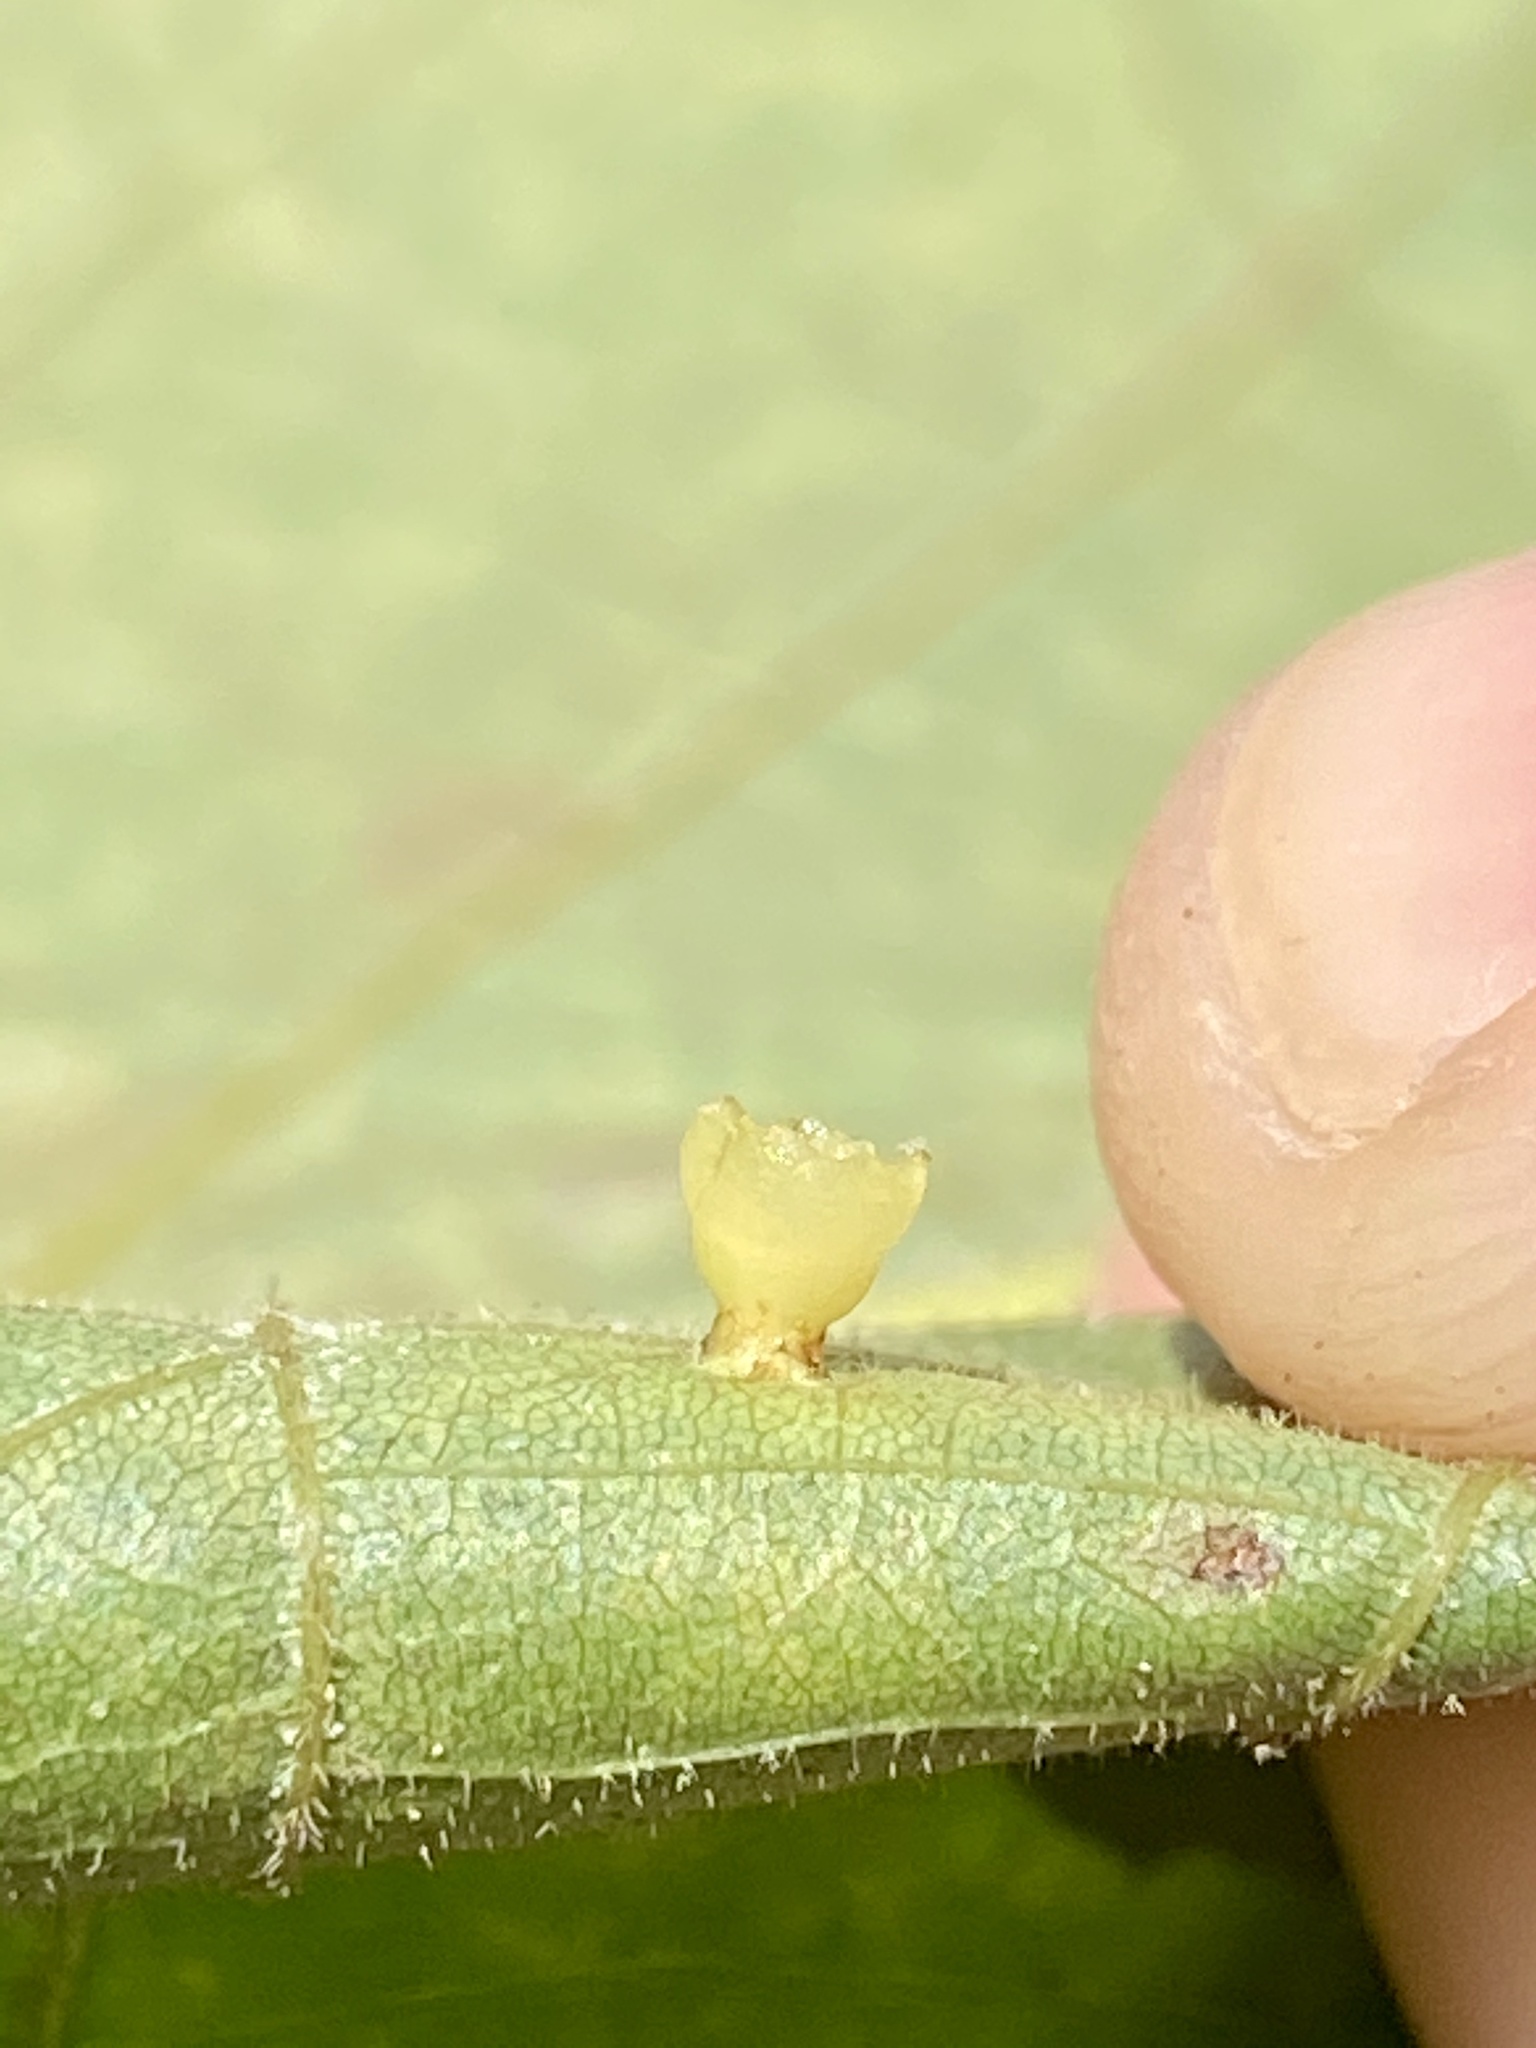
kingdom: Animalia
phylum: Arthropoda
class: Insecta
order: Diptera
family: Cecidomyiidae
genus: Caryomyia
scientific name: Caryomyia flaticrustum
